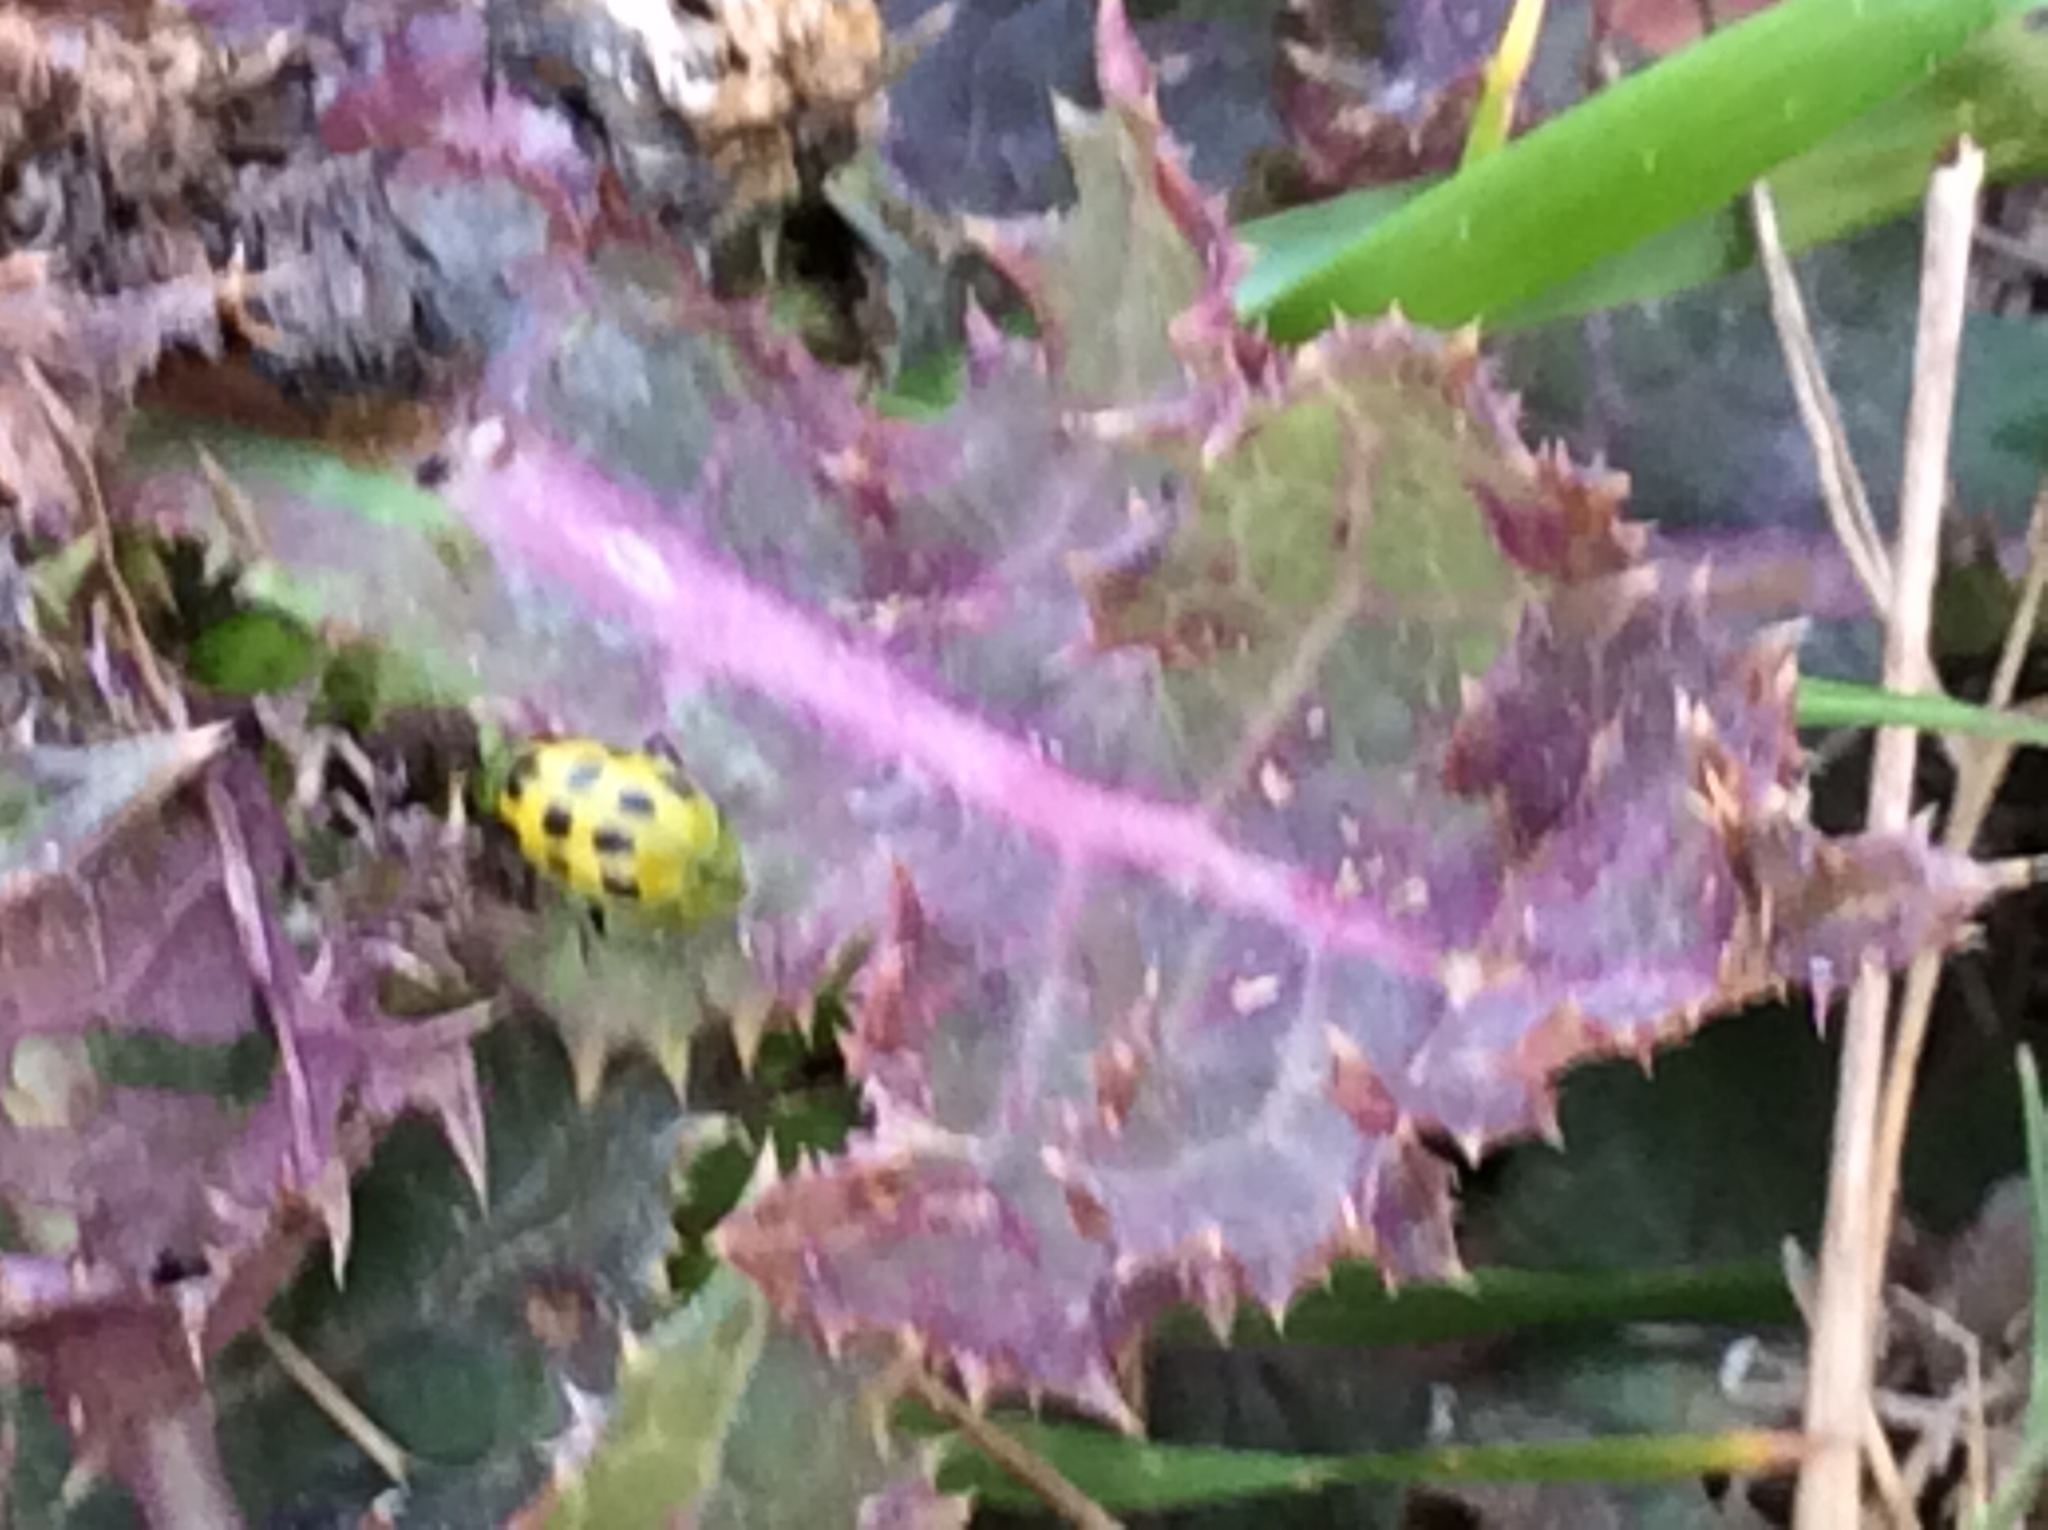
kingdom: Animalia
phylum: Arthropoda
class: Insecta
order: Coleoptera
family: Chrysomelidae
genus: Diabrotica
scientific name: Diabrotica undecimpunctata
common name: Spotted cucumber beetle
